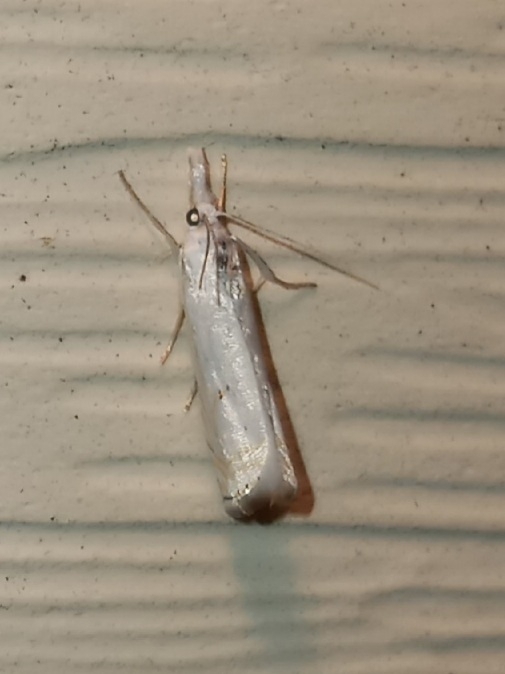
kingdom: Animalia
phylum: Arthropoda
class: Insecta
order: Lepidoptera
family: Crambidae
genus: Crambus
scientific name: Crambus albellus
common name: Small white grass-veneer
